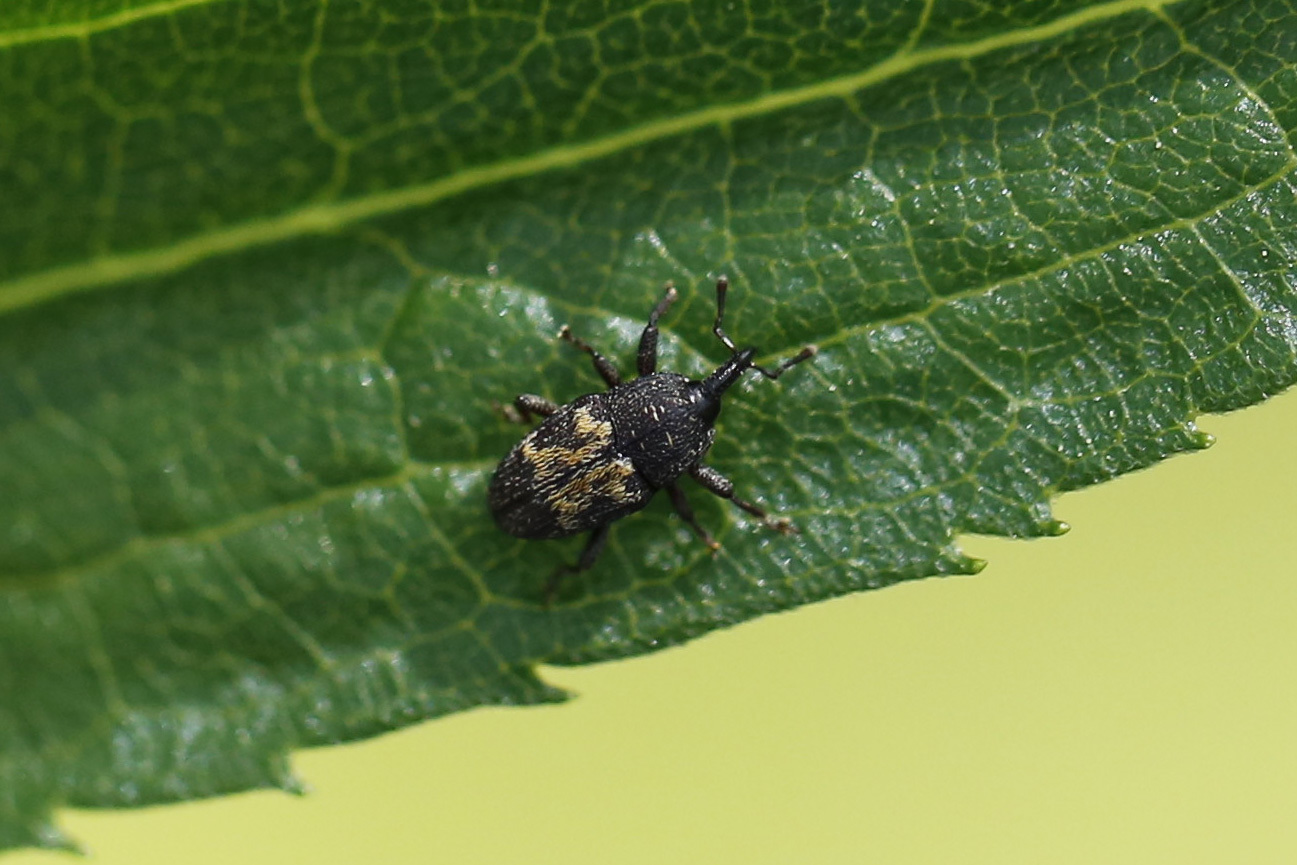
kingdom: Animalia
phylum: Arthropoda
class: Insecta
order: Coleoptera
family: Curculionidae
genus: Glyptobaris
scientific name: Glyptobaris lecontei
